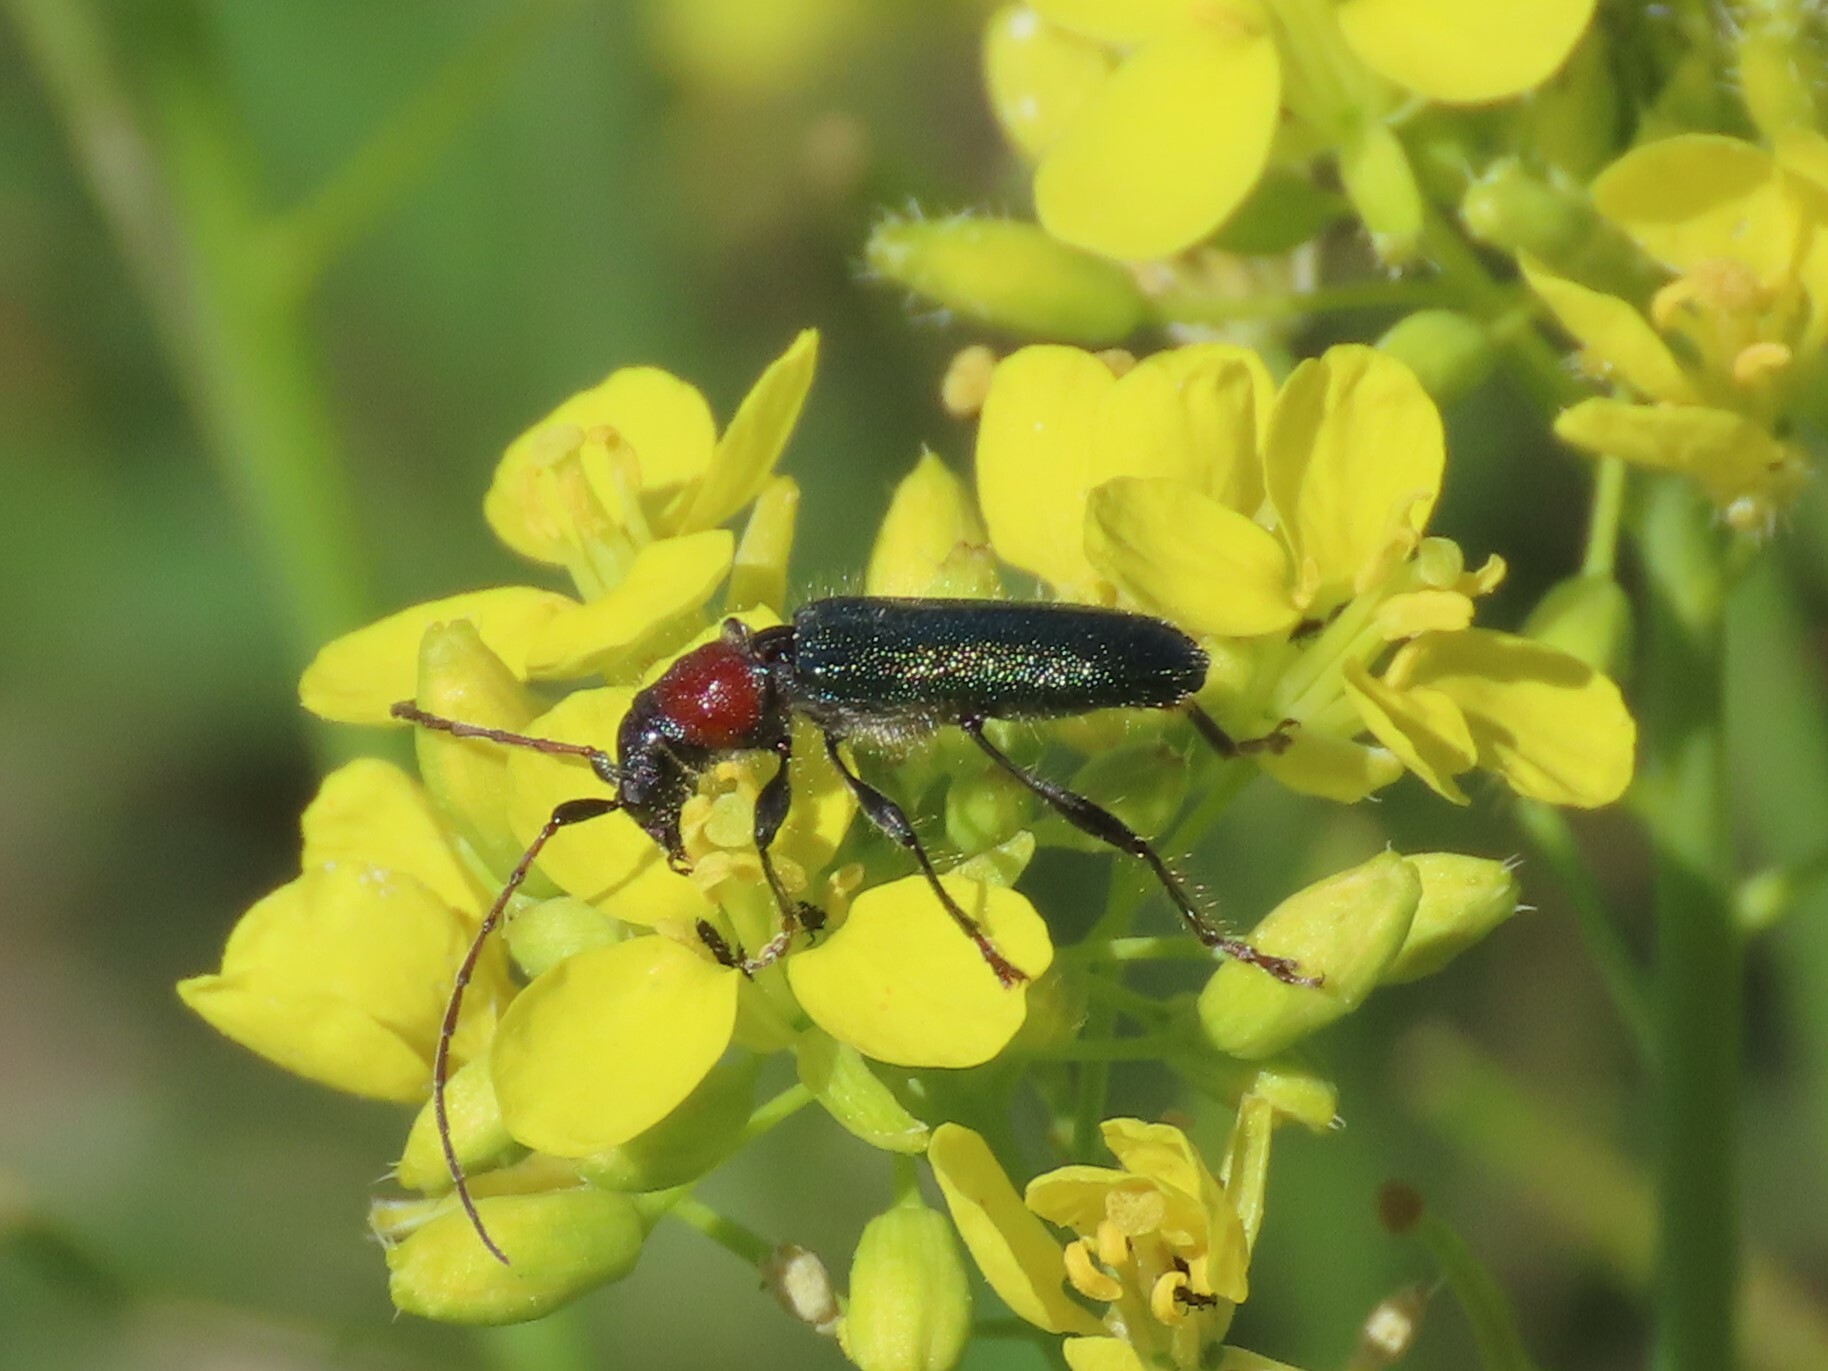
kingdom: Animalia
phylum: Arthropoda
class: Insecta
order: Coleoptera
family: Cerambycidae
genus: Certallum
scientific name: Certallum ebulinum
